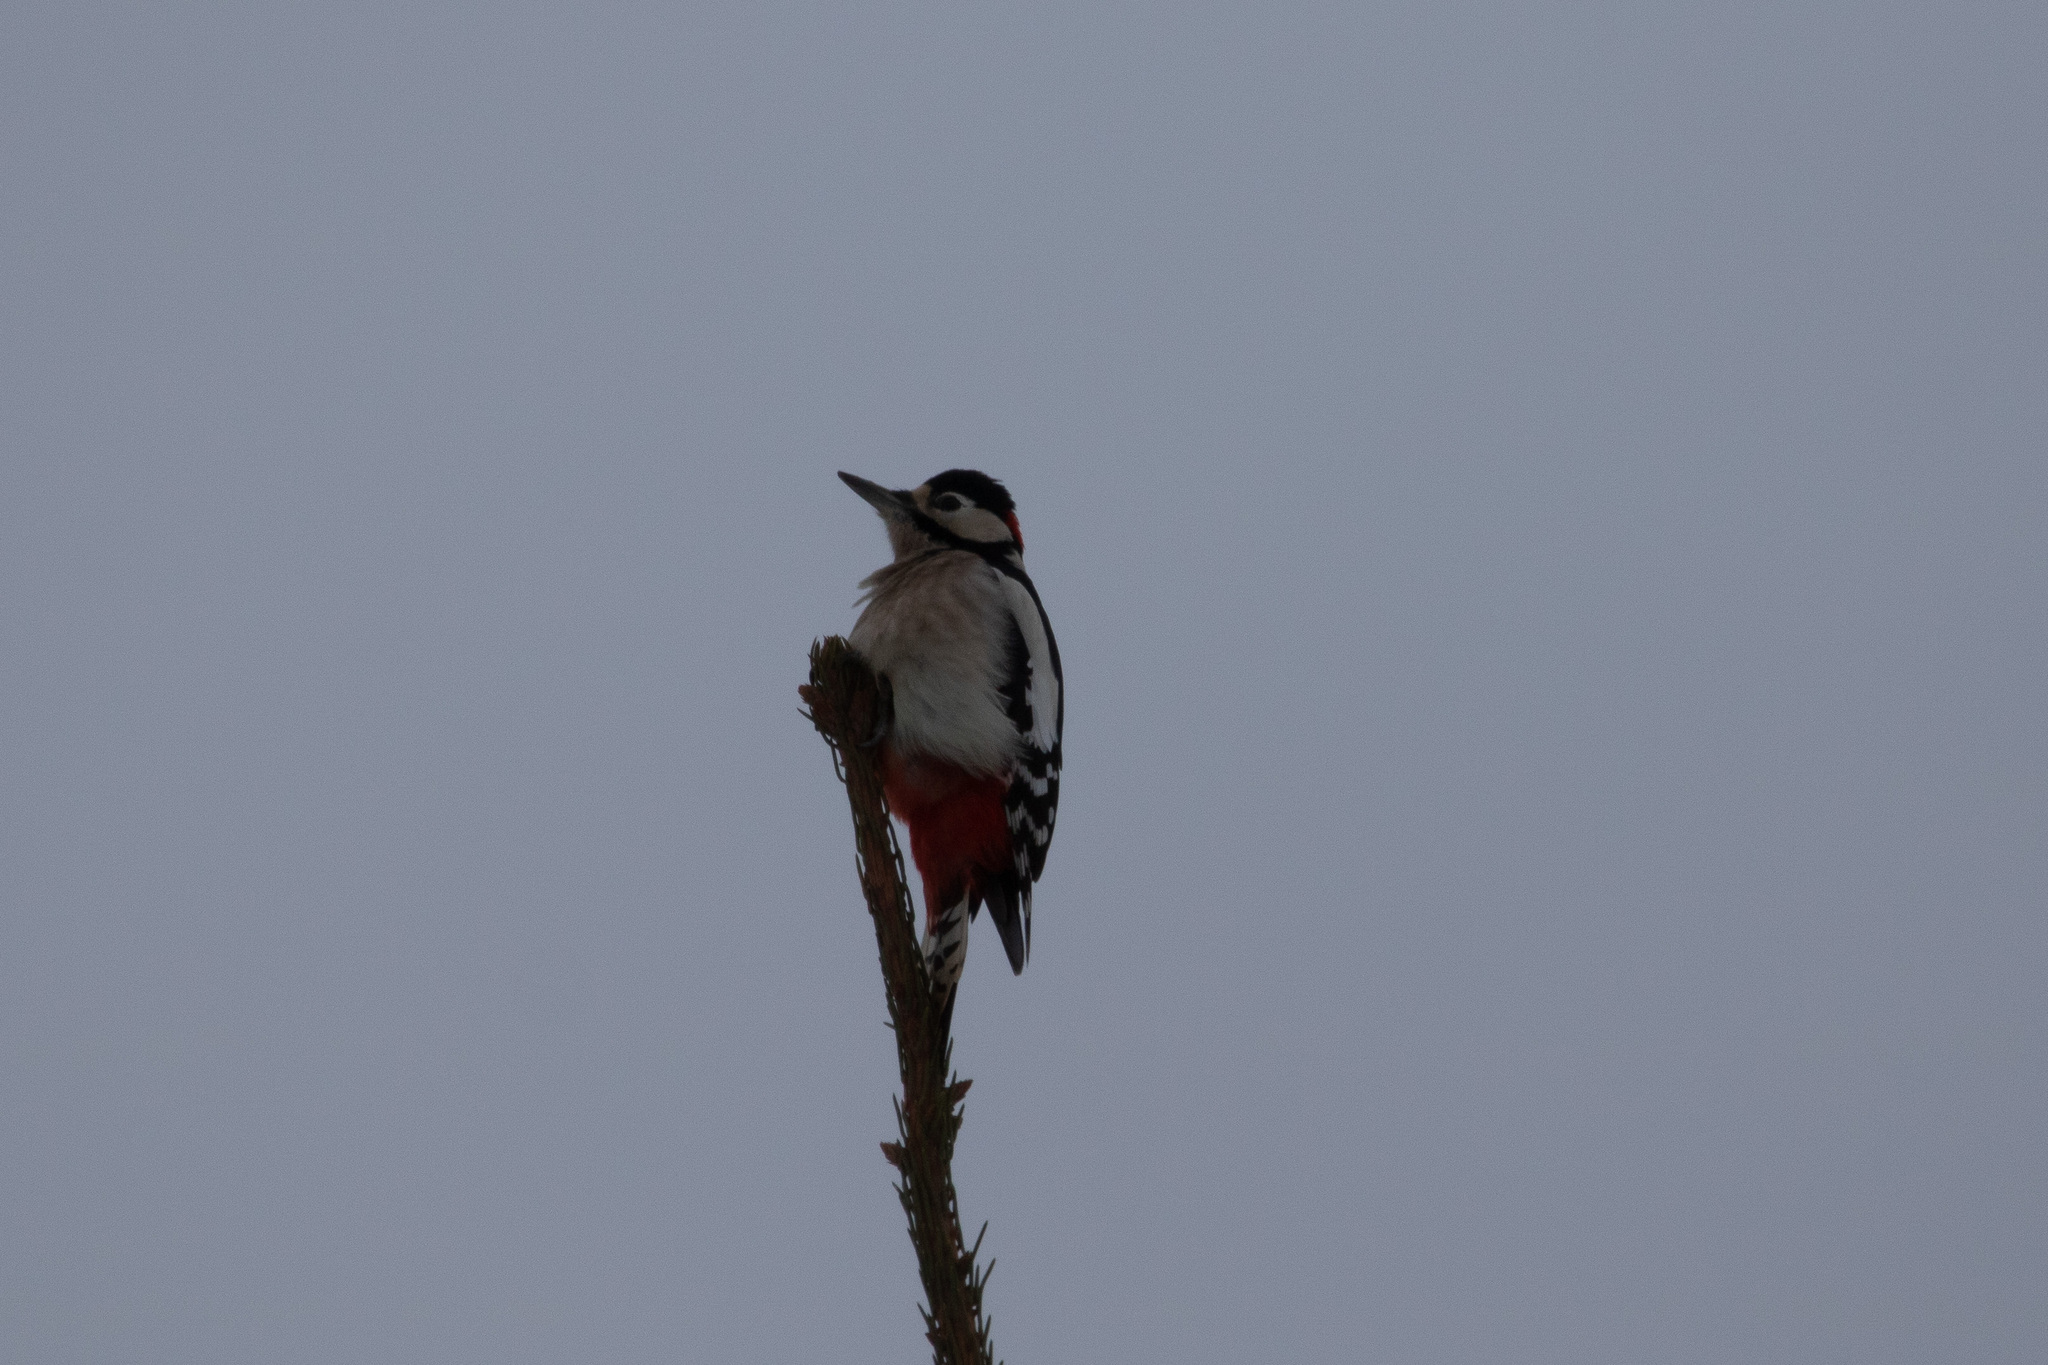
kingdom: Animalia
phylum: Chordata
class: Aves
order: Piciformes
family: Picidae
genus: Dendrocopos
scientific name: Dendrocopos major
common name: Great spotted woodpecker
